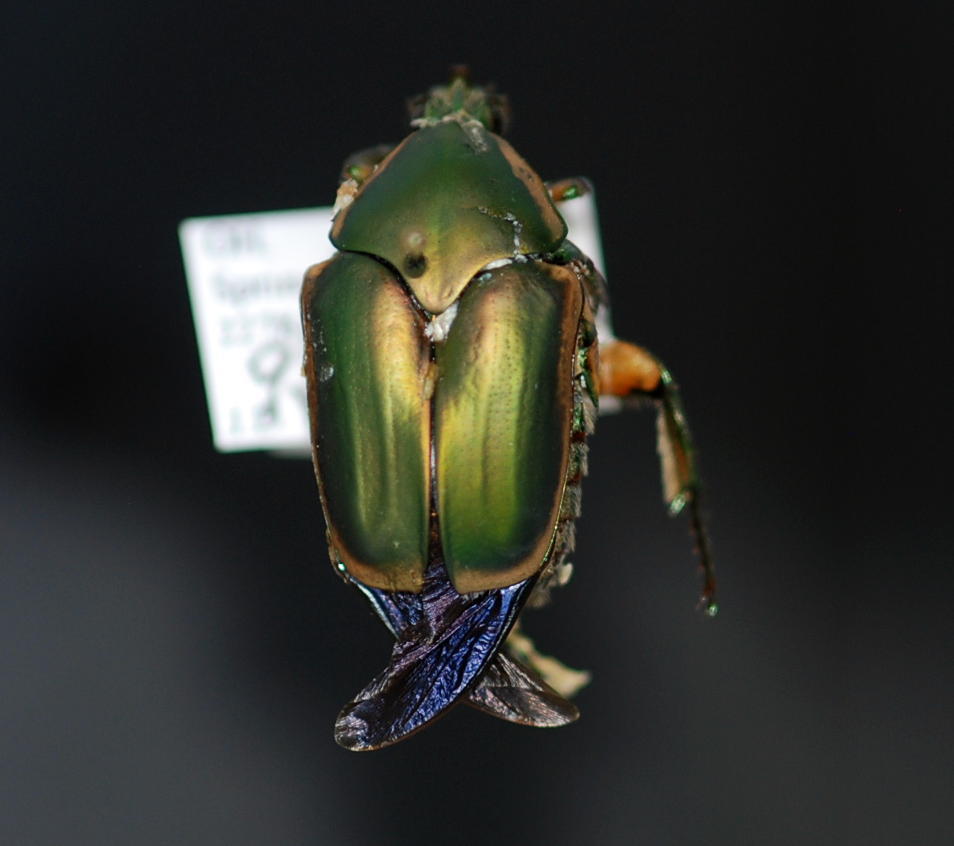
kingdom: Animalia
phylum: Arthropoda
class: Insecta
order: Coleoptera
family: Scarabaeidae
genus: Cotinis
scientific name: Cotinis nitida
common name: Common green june beetle
